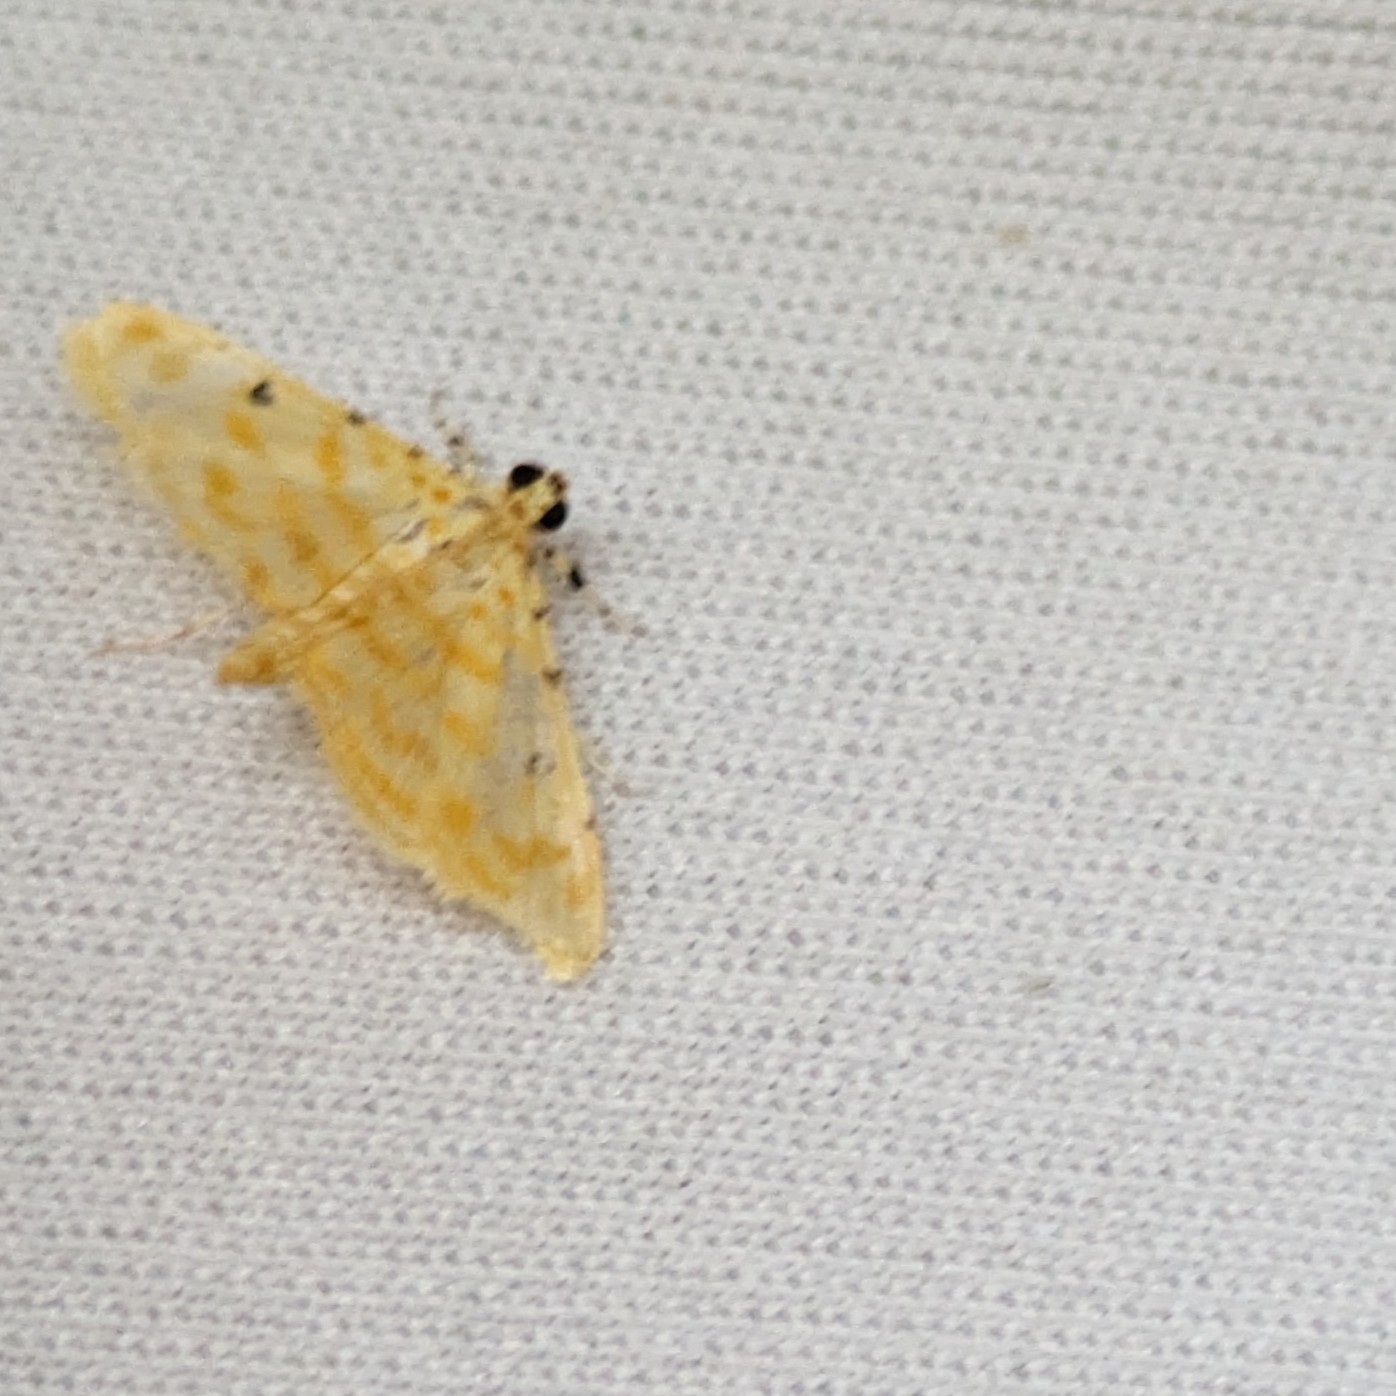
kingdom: Animalia
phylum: Arthropoda
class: Insecta
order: Lepidoptera
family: Crambidae
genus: Notarcha
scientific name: Notarcha aurolinealis
